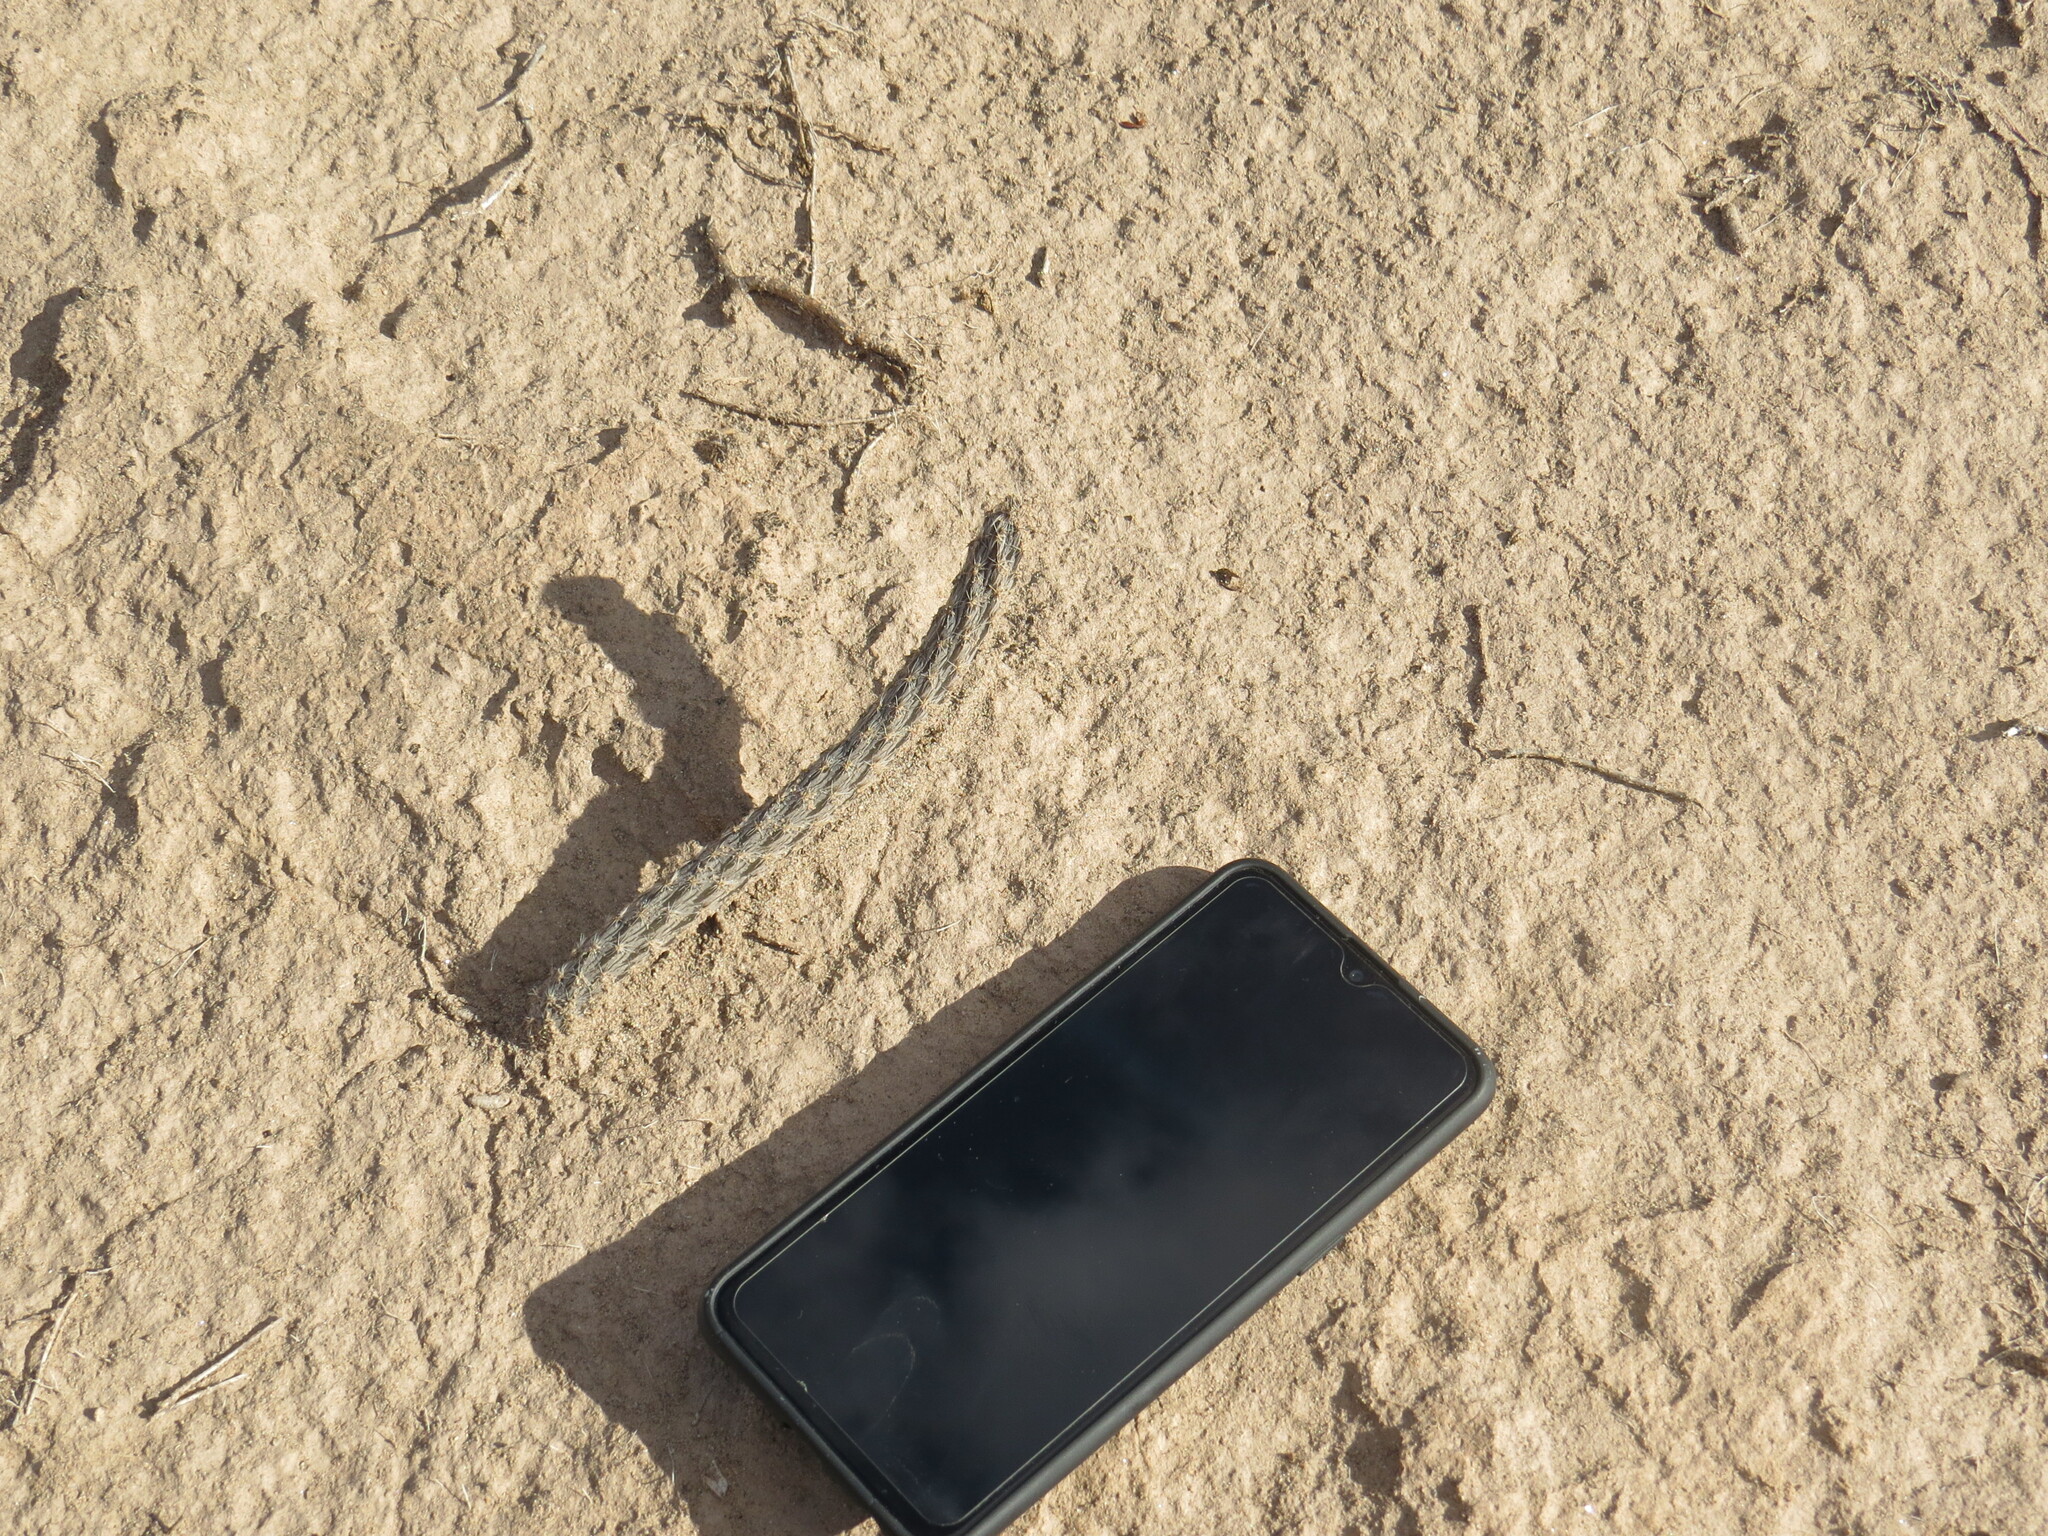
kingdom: Plantae
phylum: Tracheophyta
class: Magnoliopsida
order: Caryophyllales
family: Cactaceae
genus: Pterocactus
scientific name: Pterocactus tuberosus
